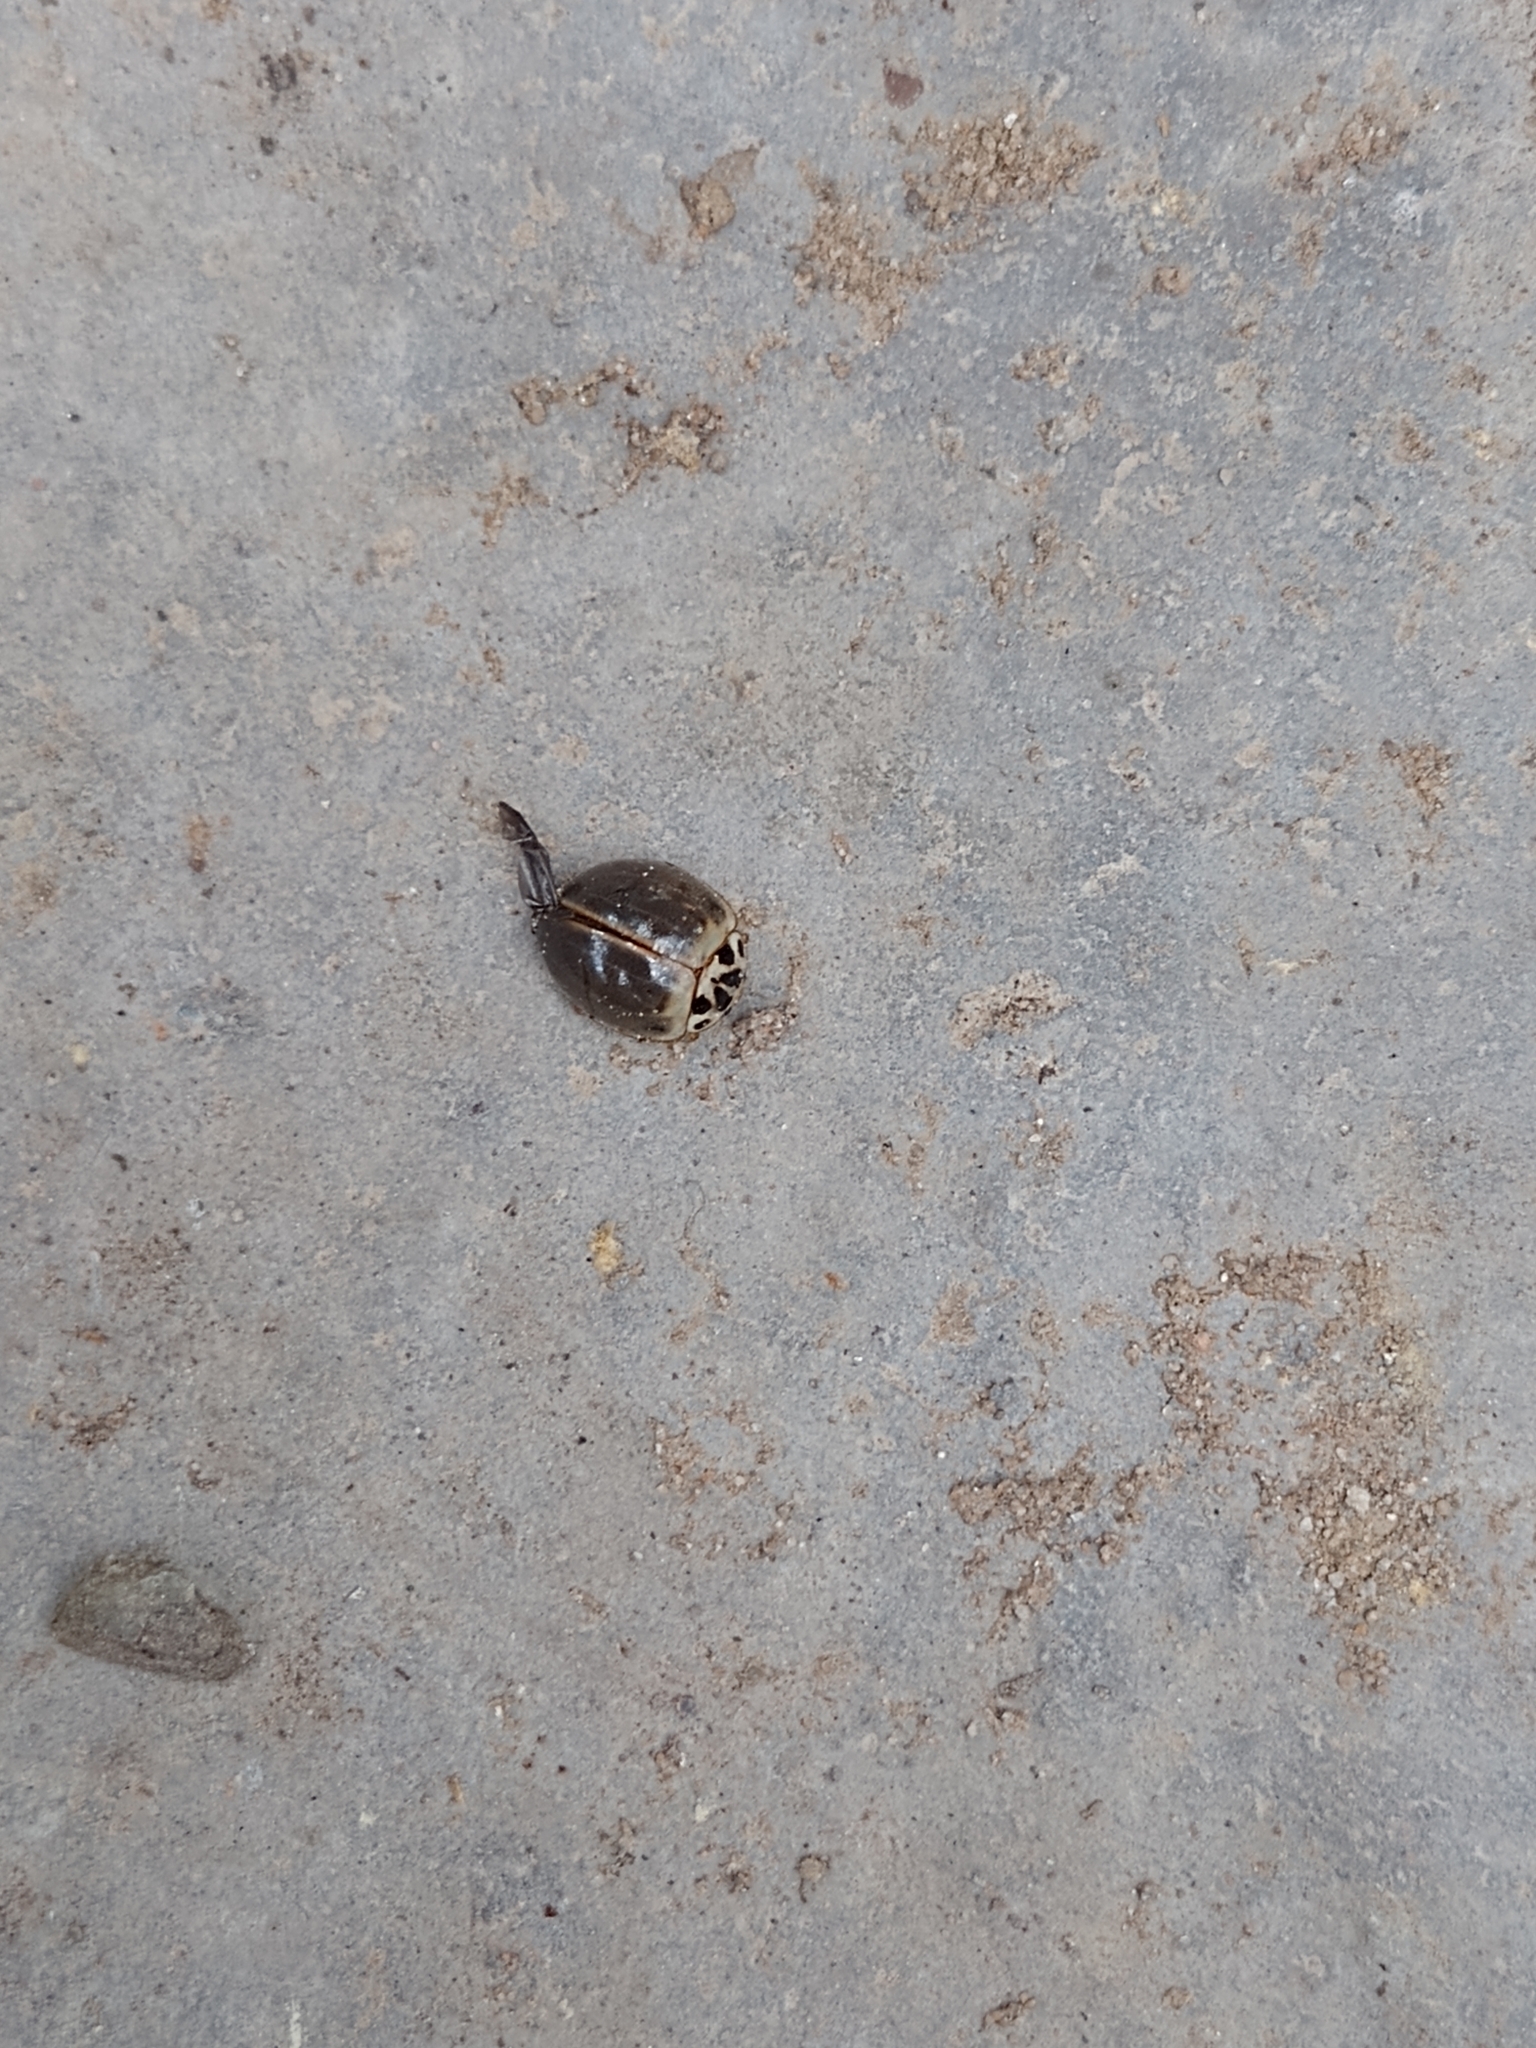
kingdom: Animalia
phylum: Arthropoda
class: Insecta
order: Coleoptera
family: Coccinellidae
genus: Neoharmonia
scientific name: Neoharmonia
